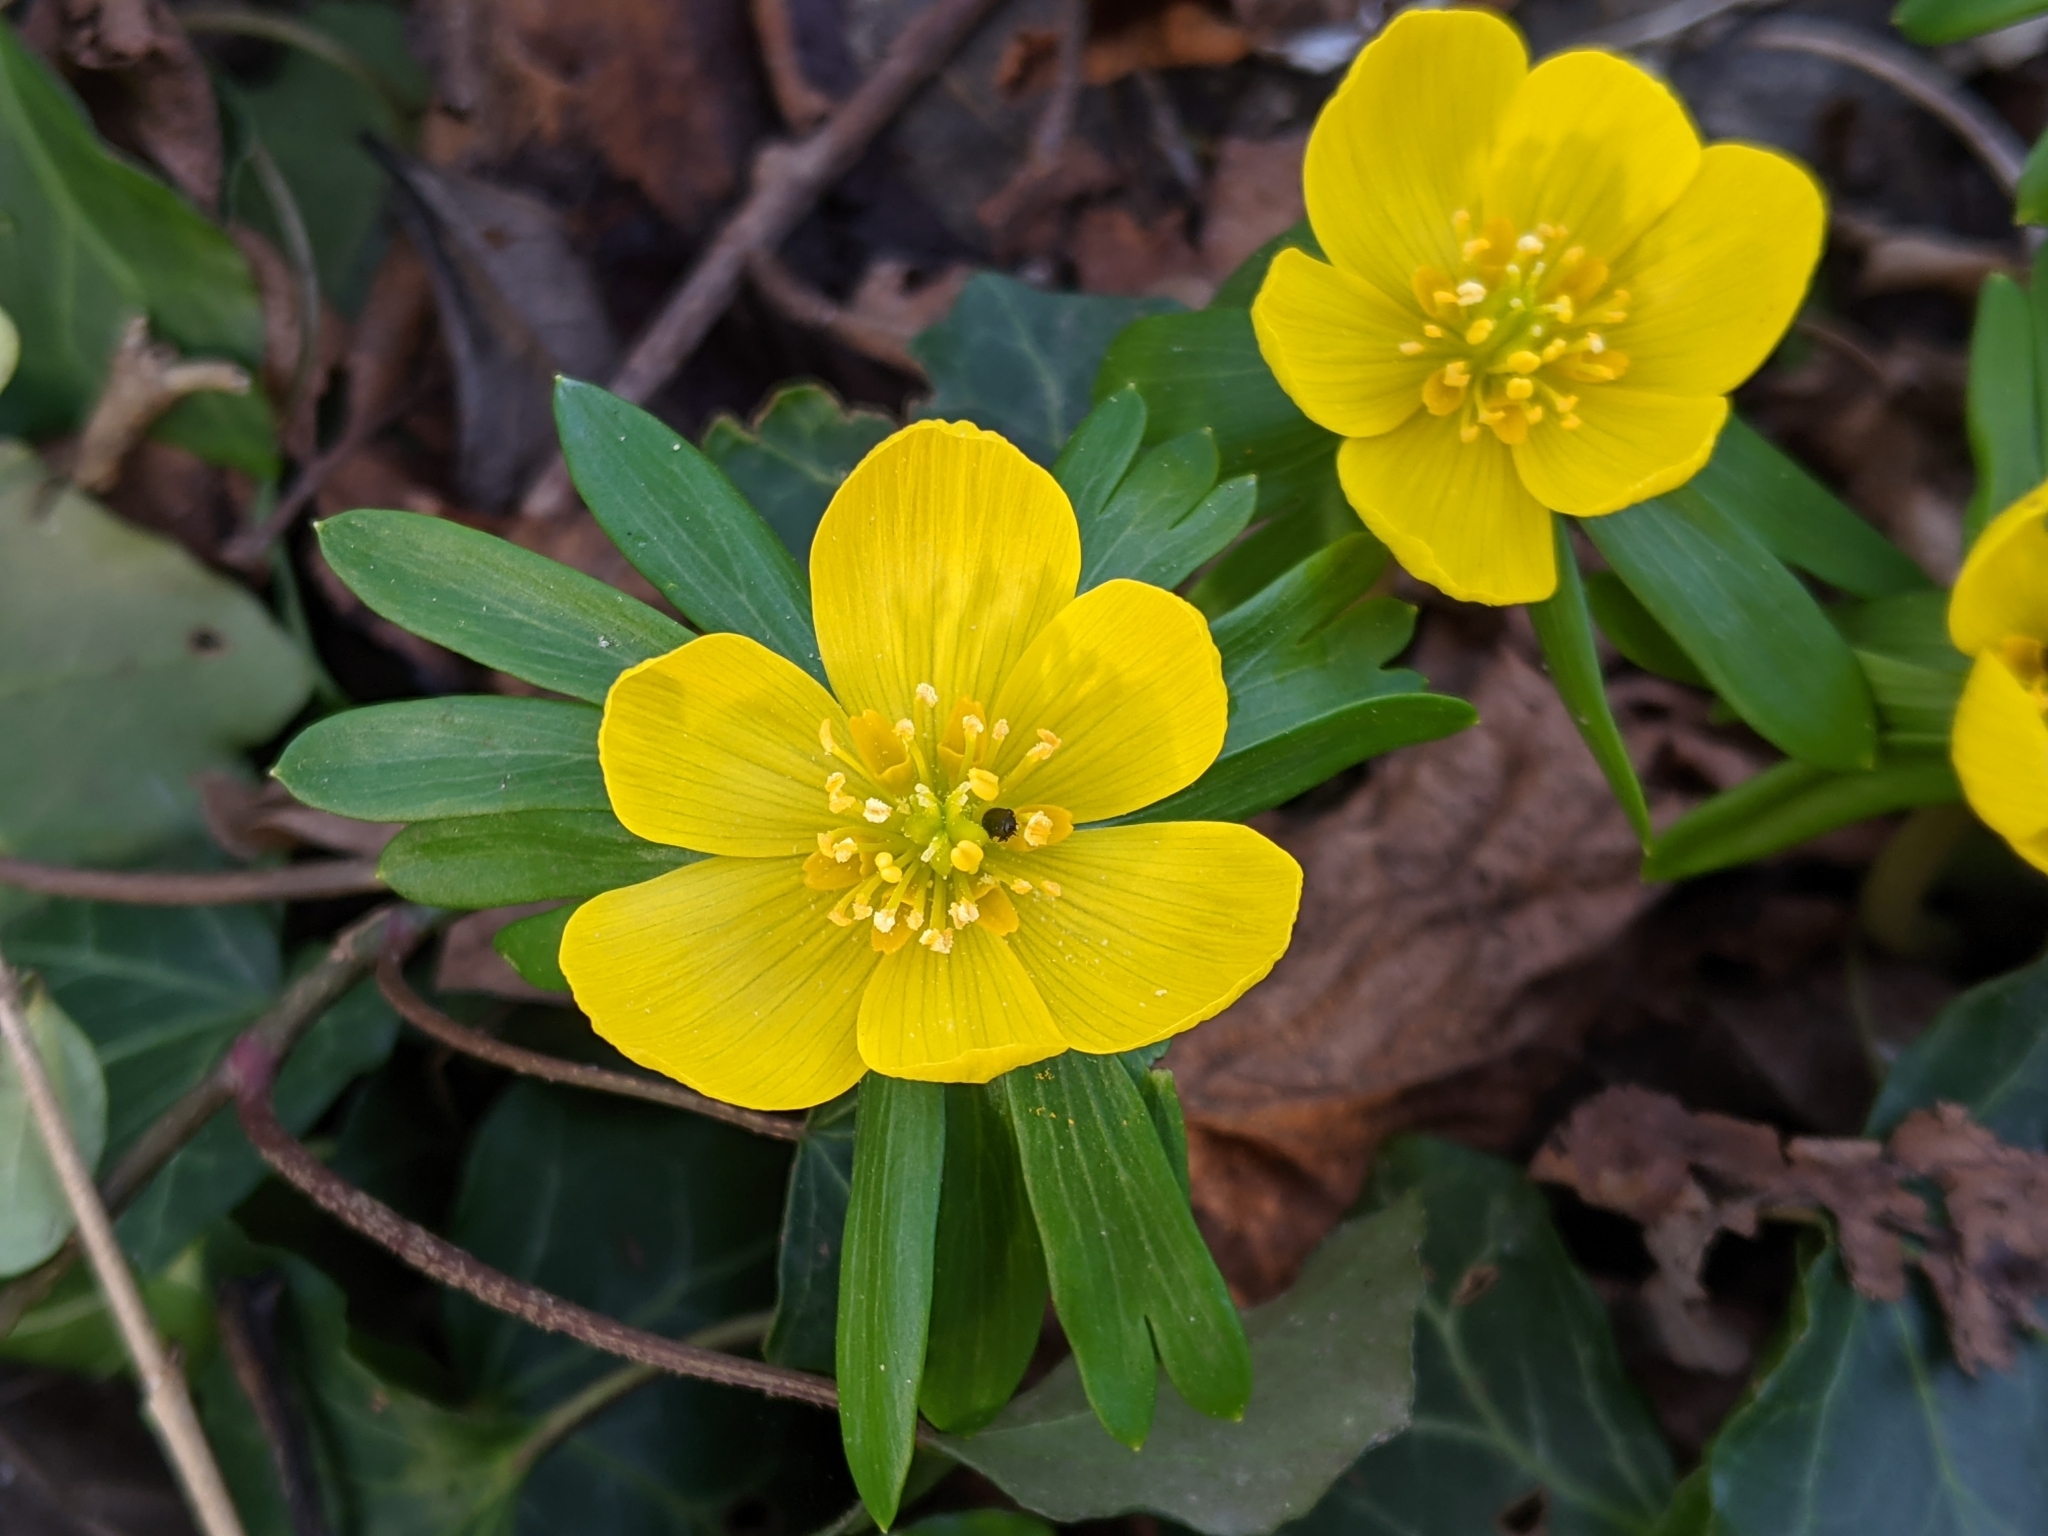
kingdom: Plantae
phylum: Tracheophyta
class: Magnoliopsida
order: Ranunculales
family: Ranunculaceae
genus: Eranthis
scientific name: Eranthis hyemalis
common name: Winter aconite
